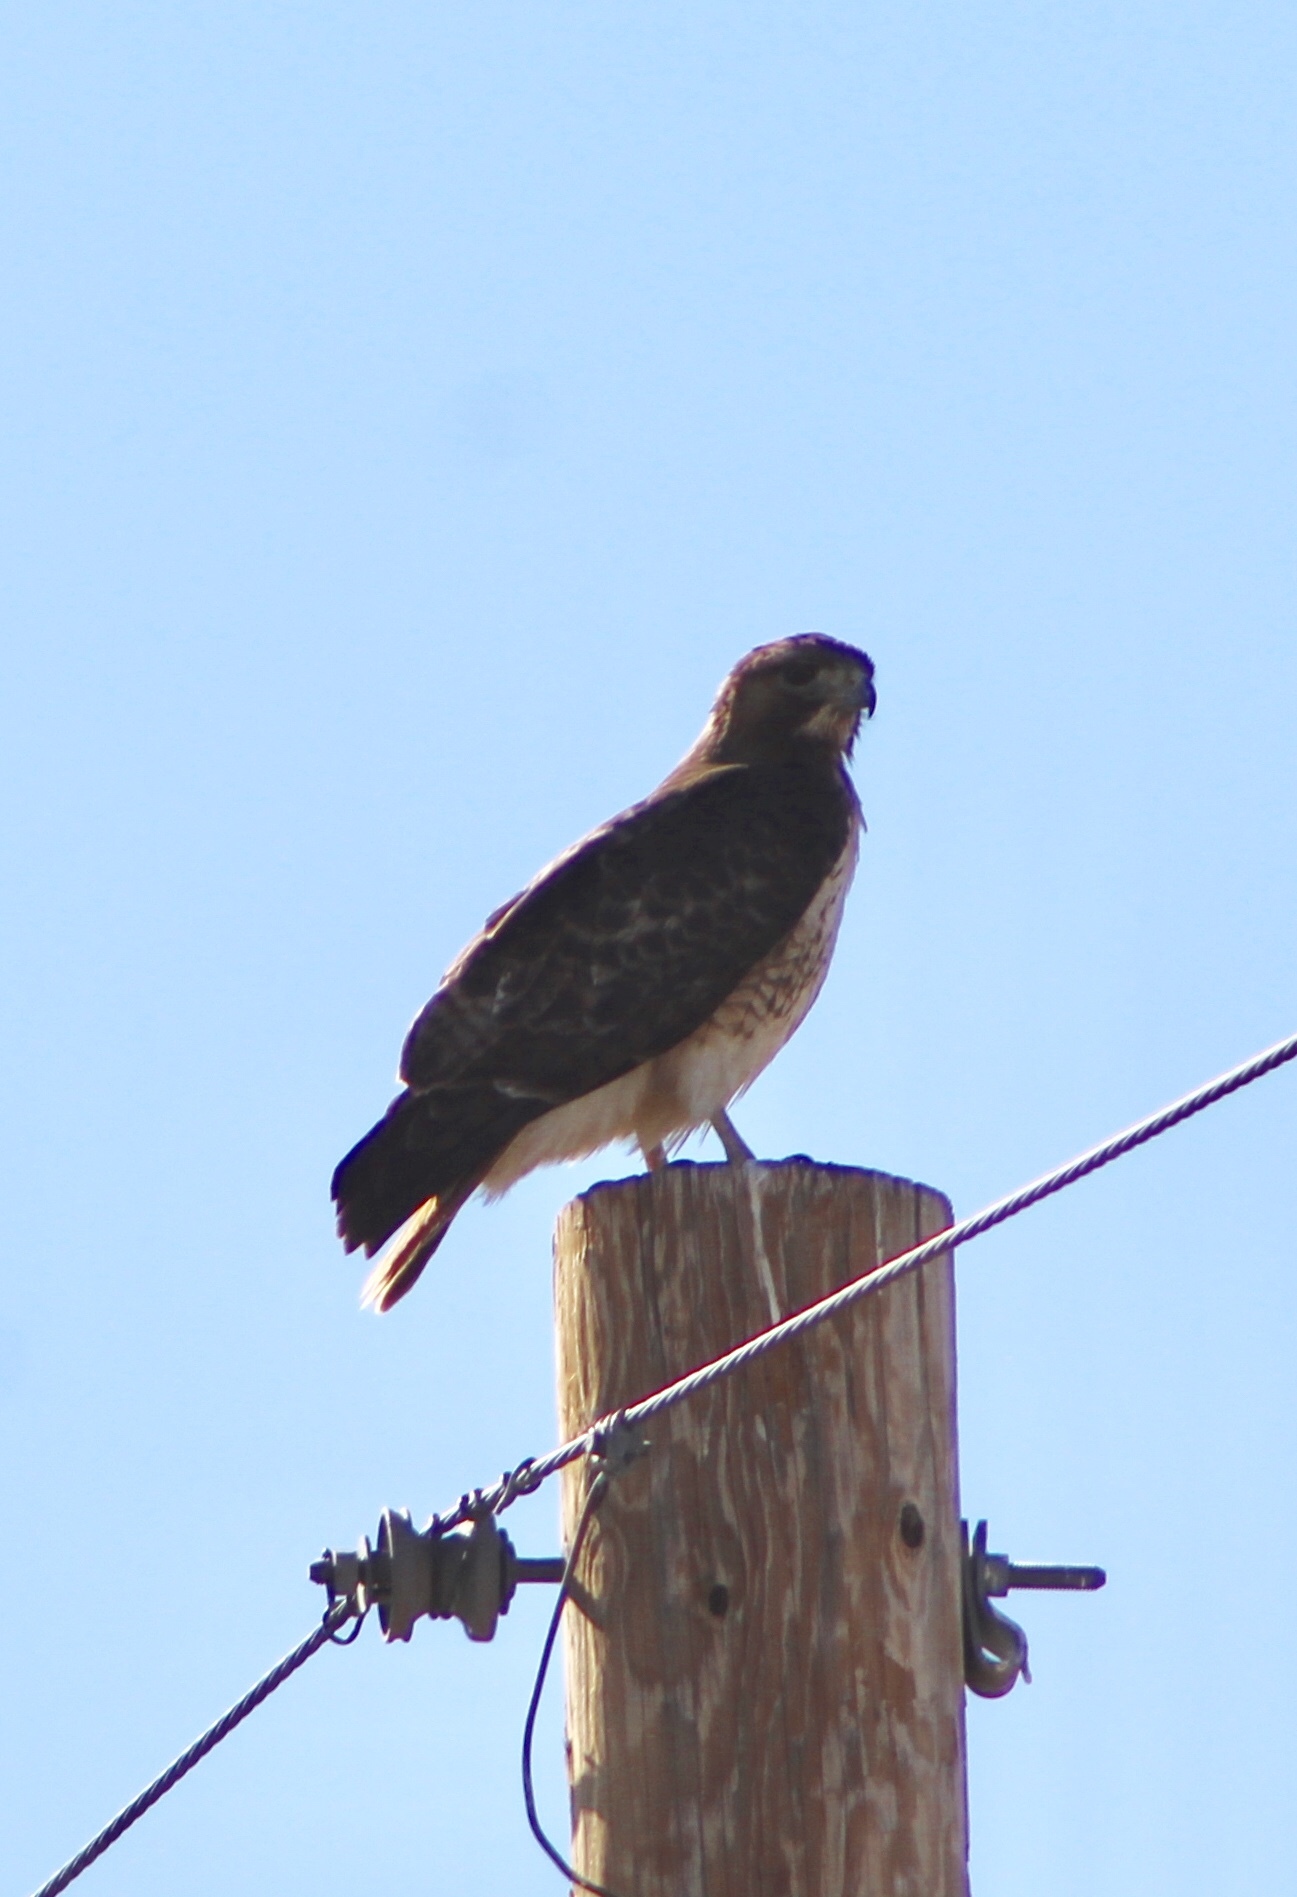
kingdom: Animalia
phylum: Chordata
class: Aves
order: Accipitriformes
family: Accipitridae
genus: Buteo
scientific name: Buteo jamaicensis
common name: Red-tailed hawk
